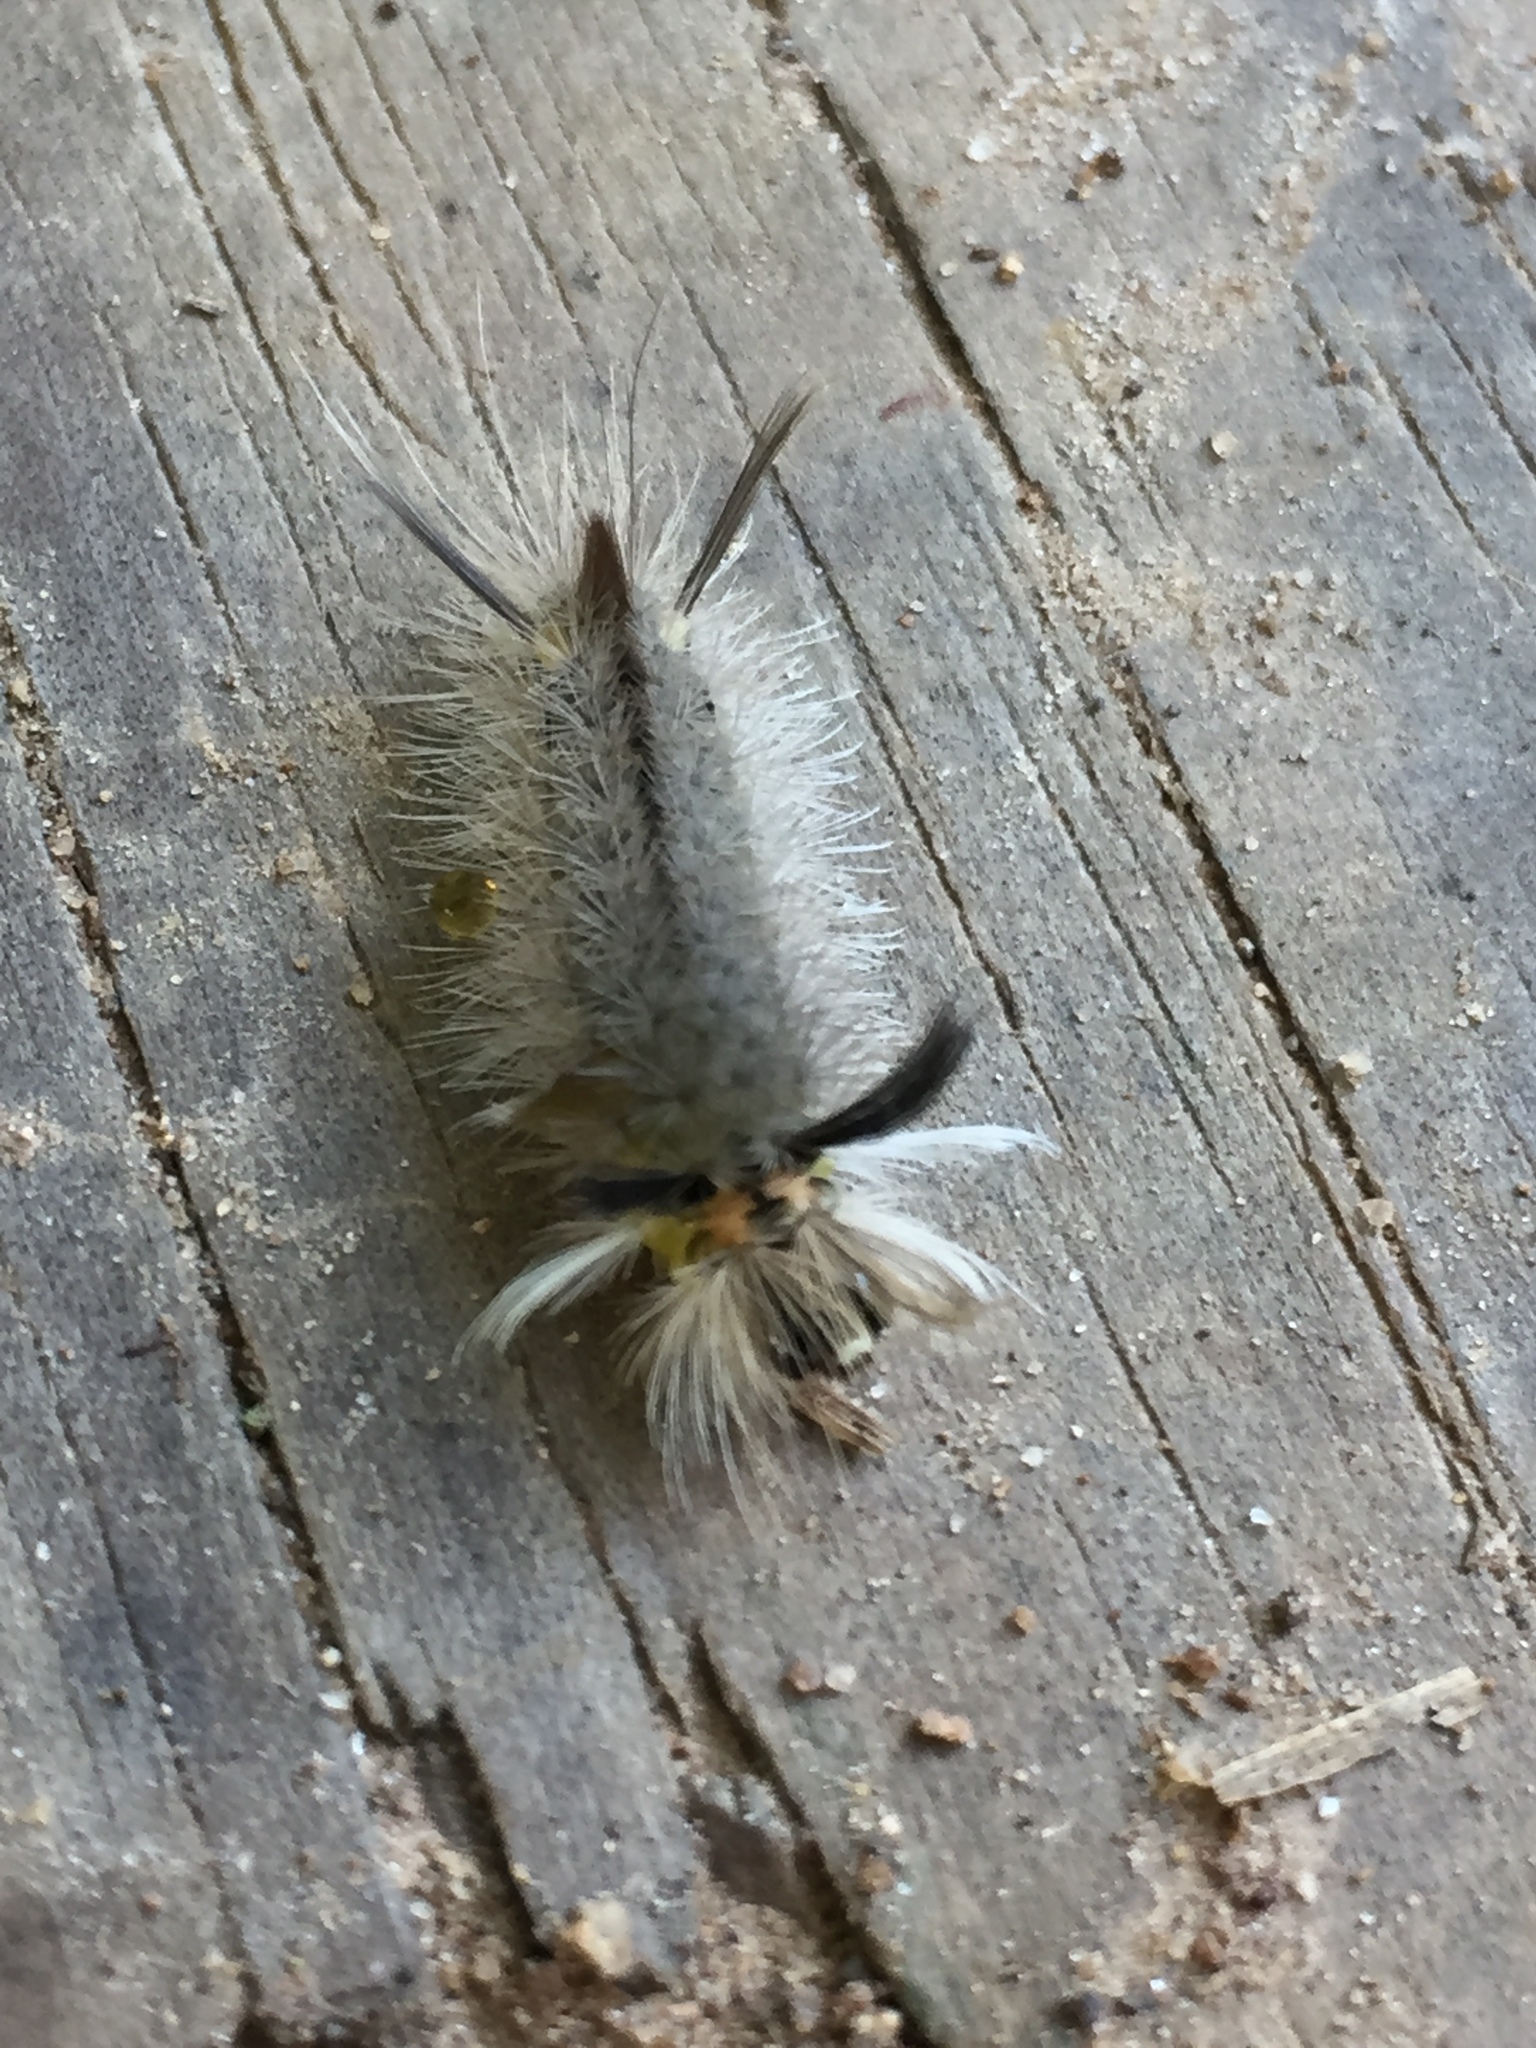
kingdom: Animalia
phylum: Arthropoda
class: Insecta
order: Lepidoptera
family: Erebidae
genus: Halysidota
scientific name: Halysidota tessellaris
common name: Banded tussock moth
